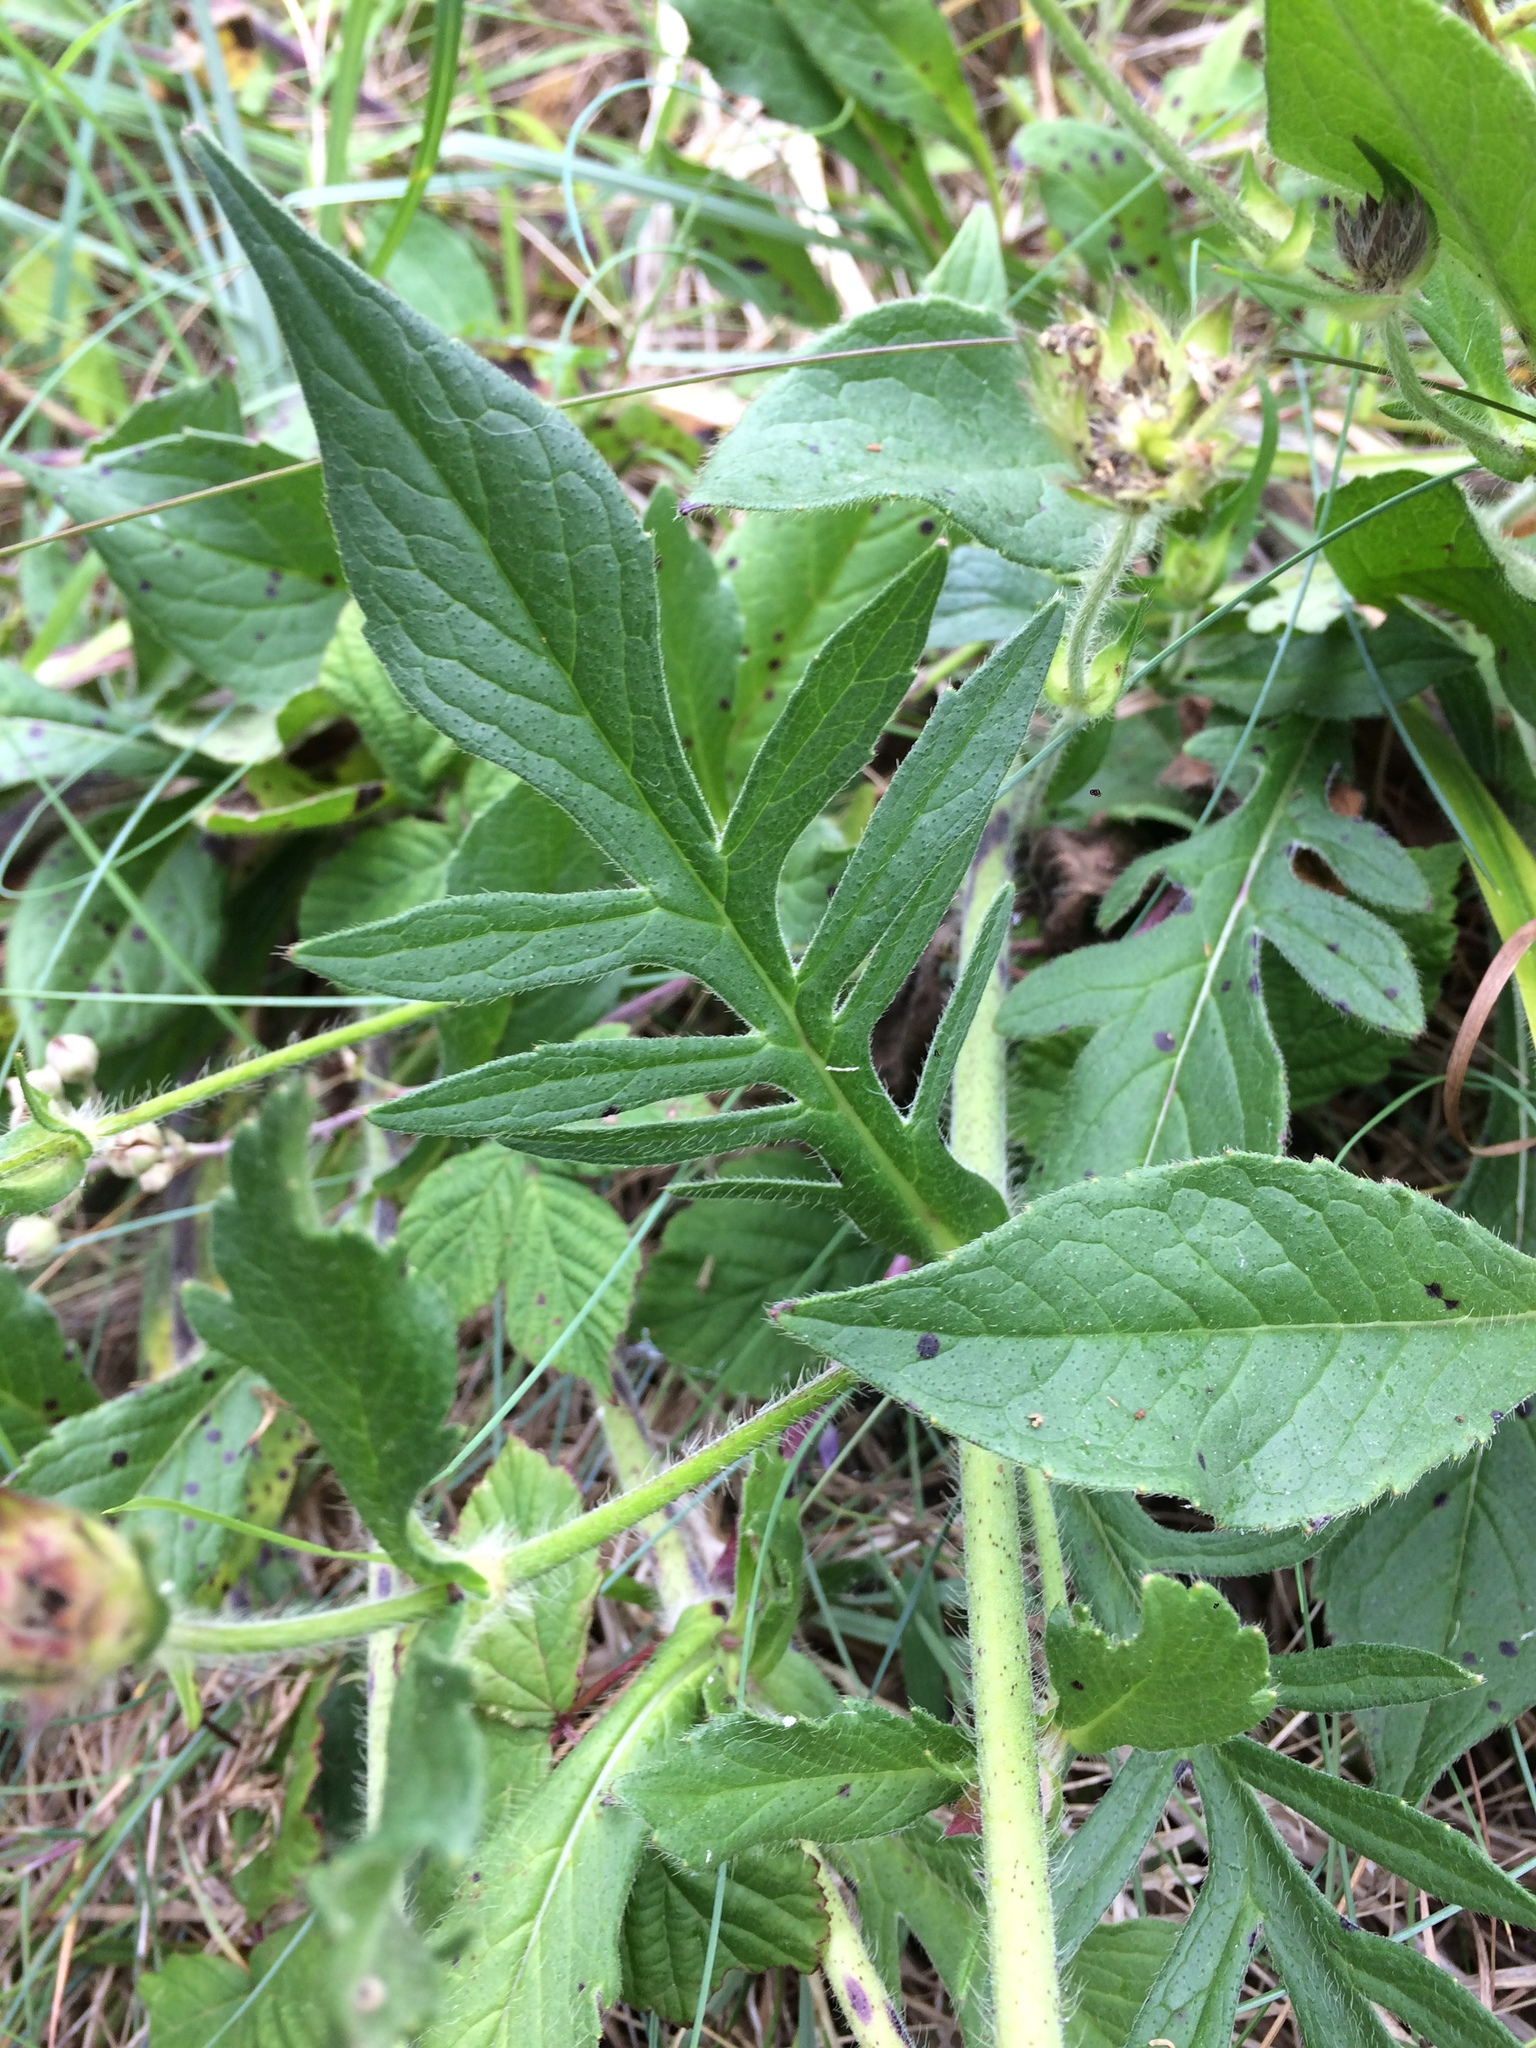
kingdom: Plantae
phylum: Tracheophyta
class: Magnoliopsida
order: Dipsacales
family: Caprifoliaceae
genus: Knautia
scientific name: Knautia arvensis
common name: Field scabiosa
